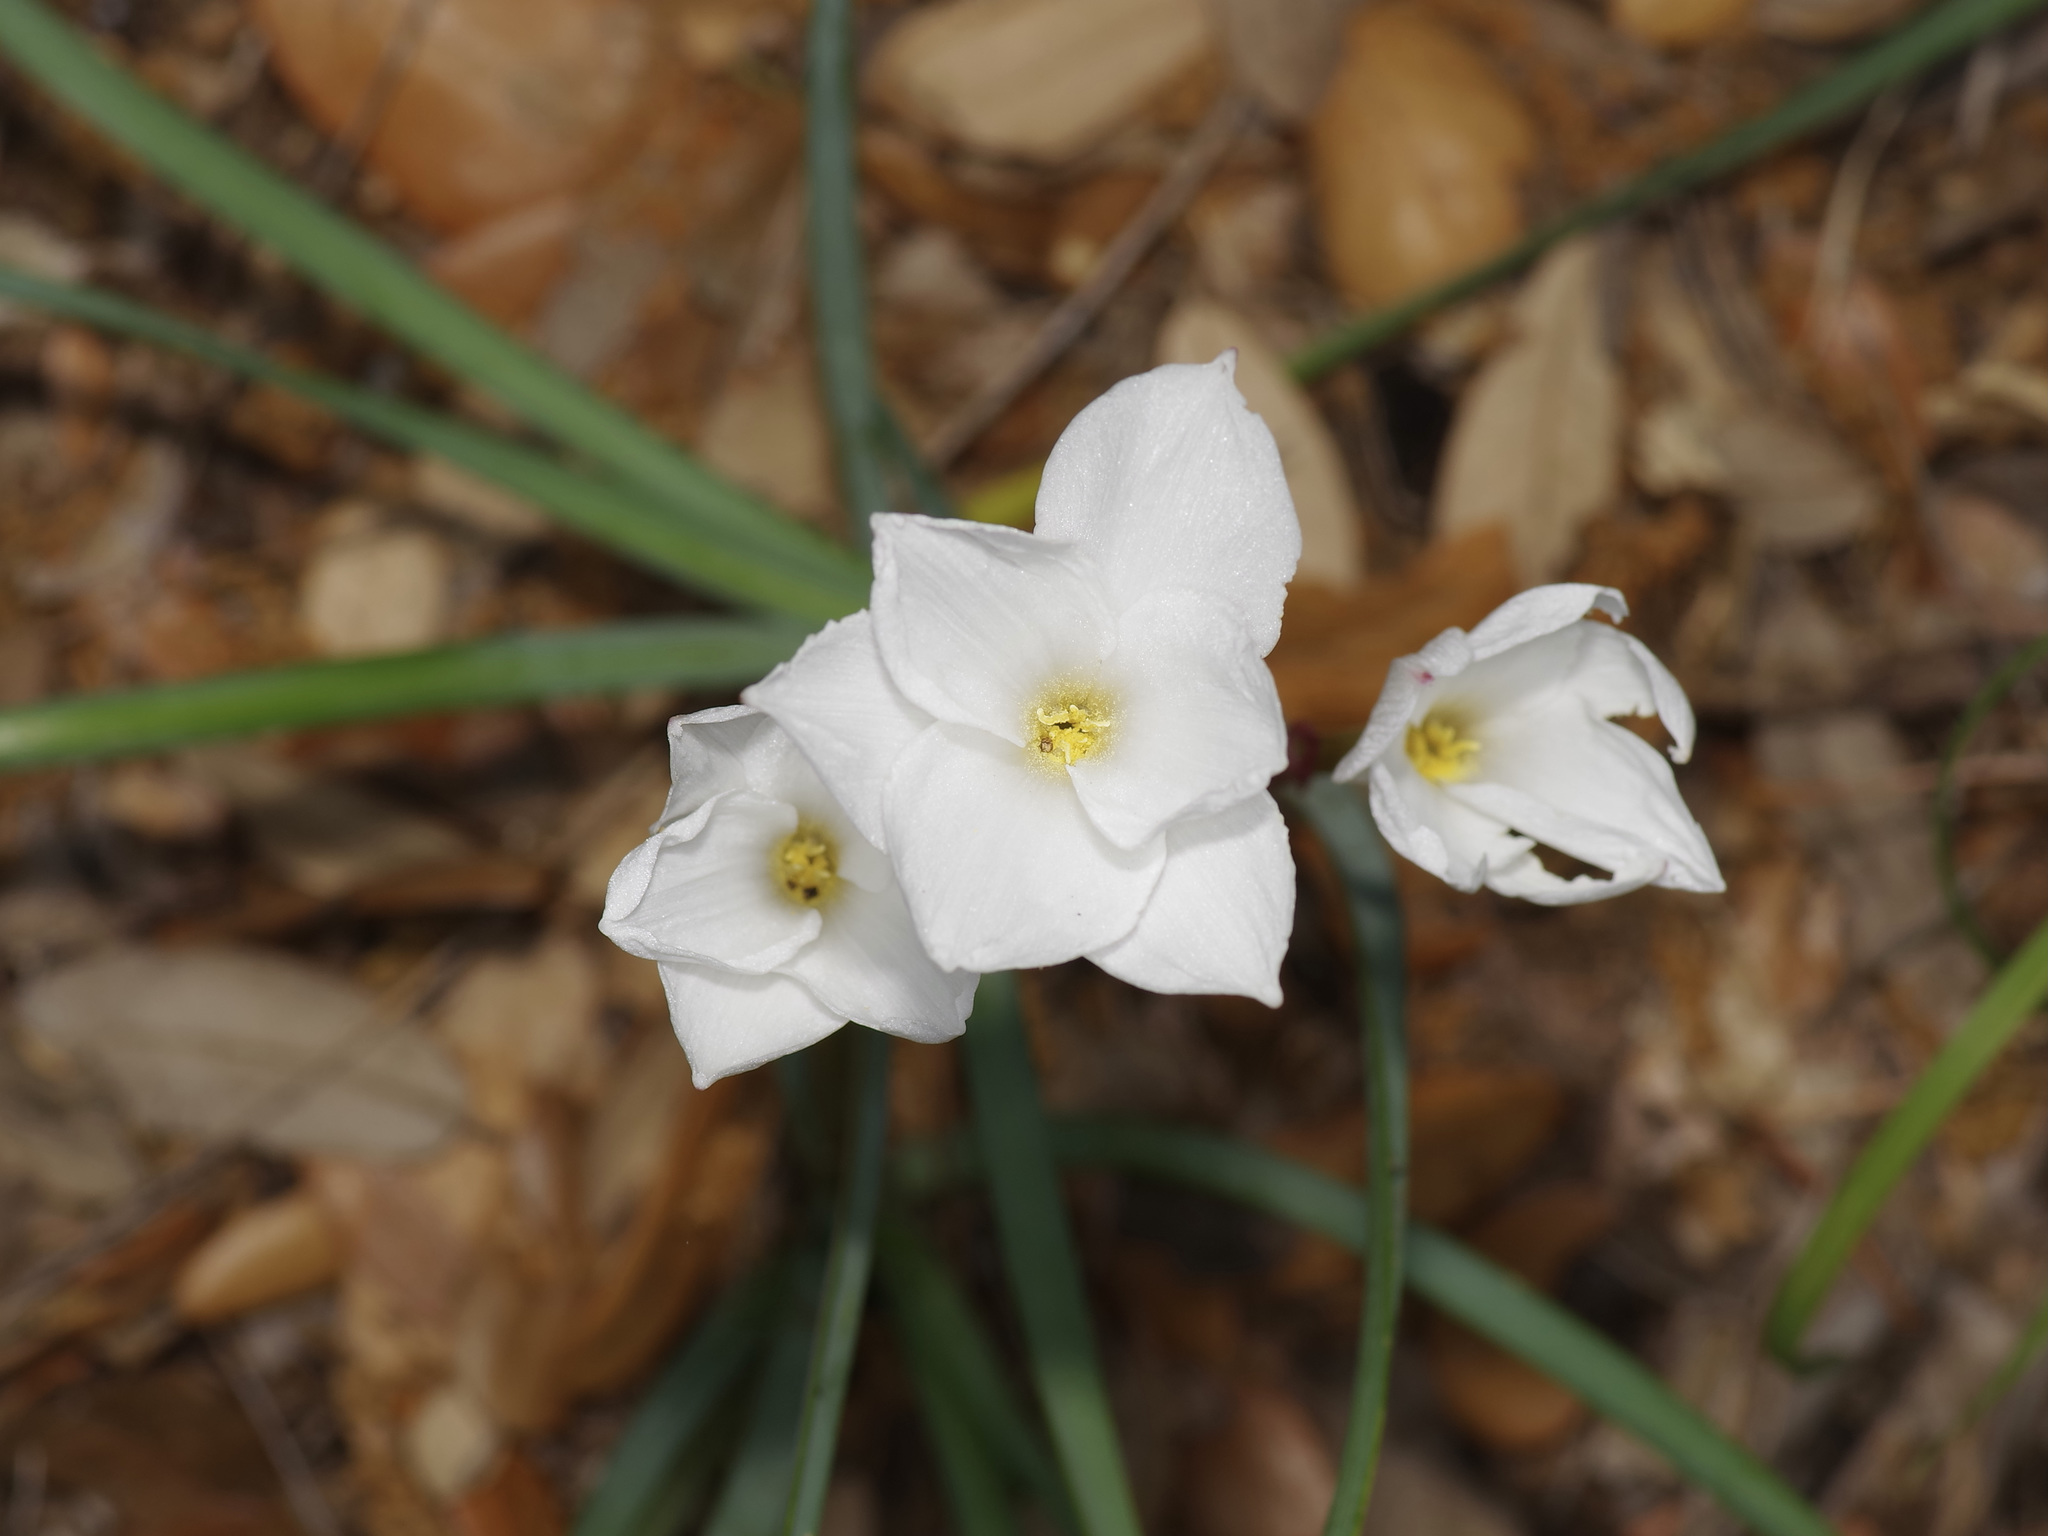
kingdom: Plantae
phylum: Tracheophyta
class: Liliopsida
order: Asparagales
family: Amaryllidaceae
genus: Zephyranthes
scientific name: Zephyranthes drummondii
